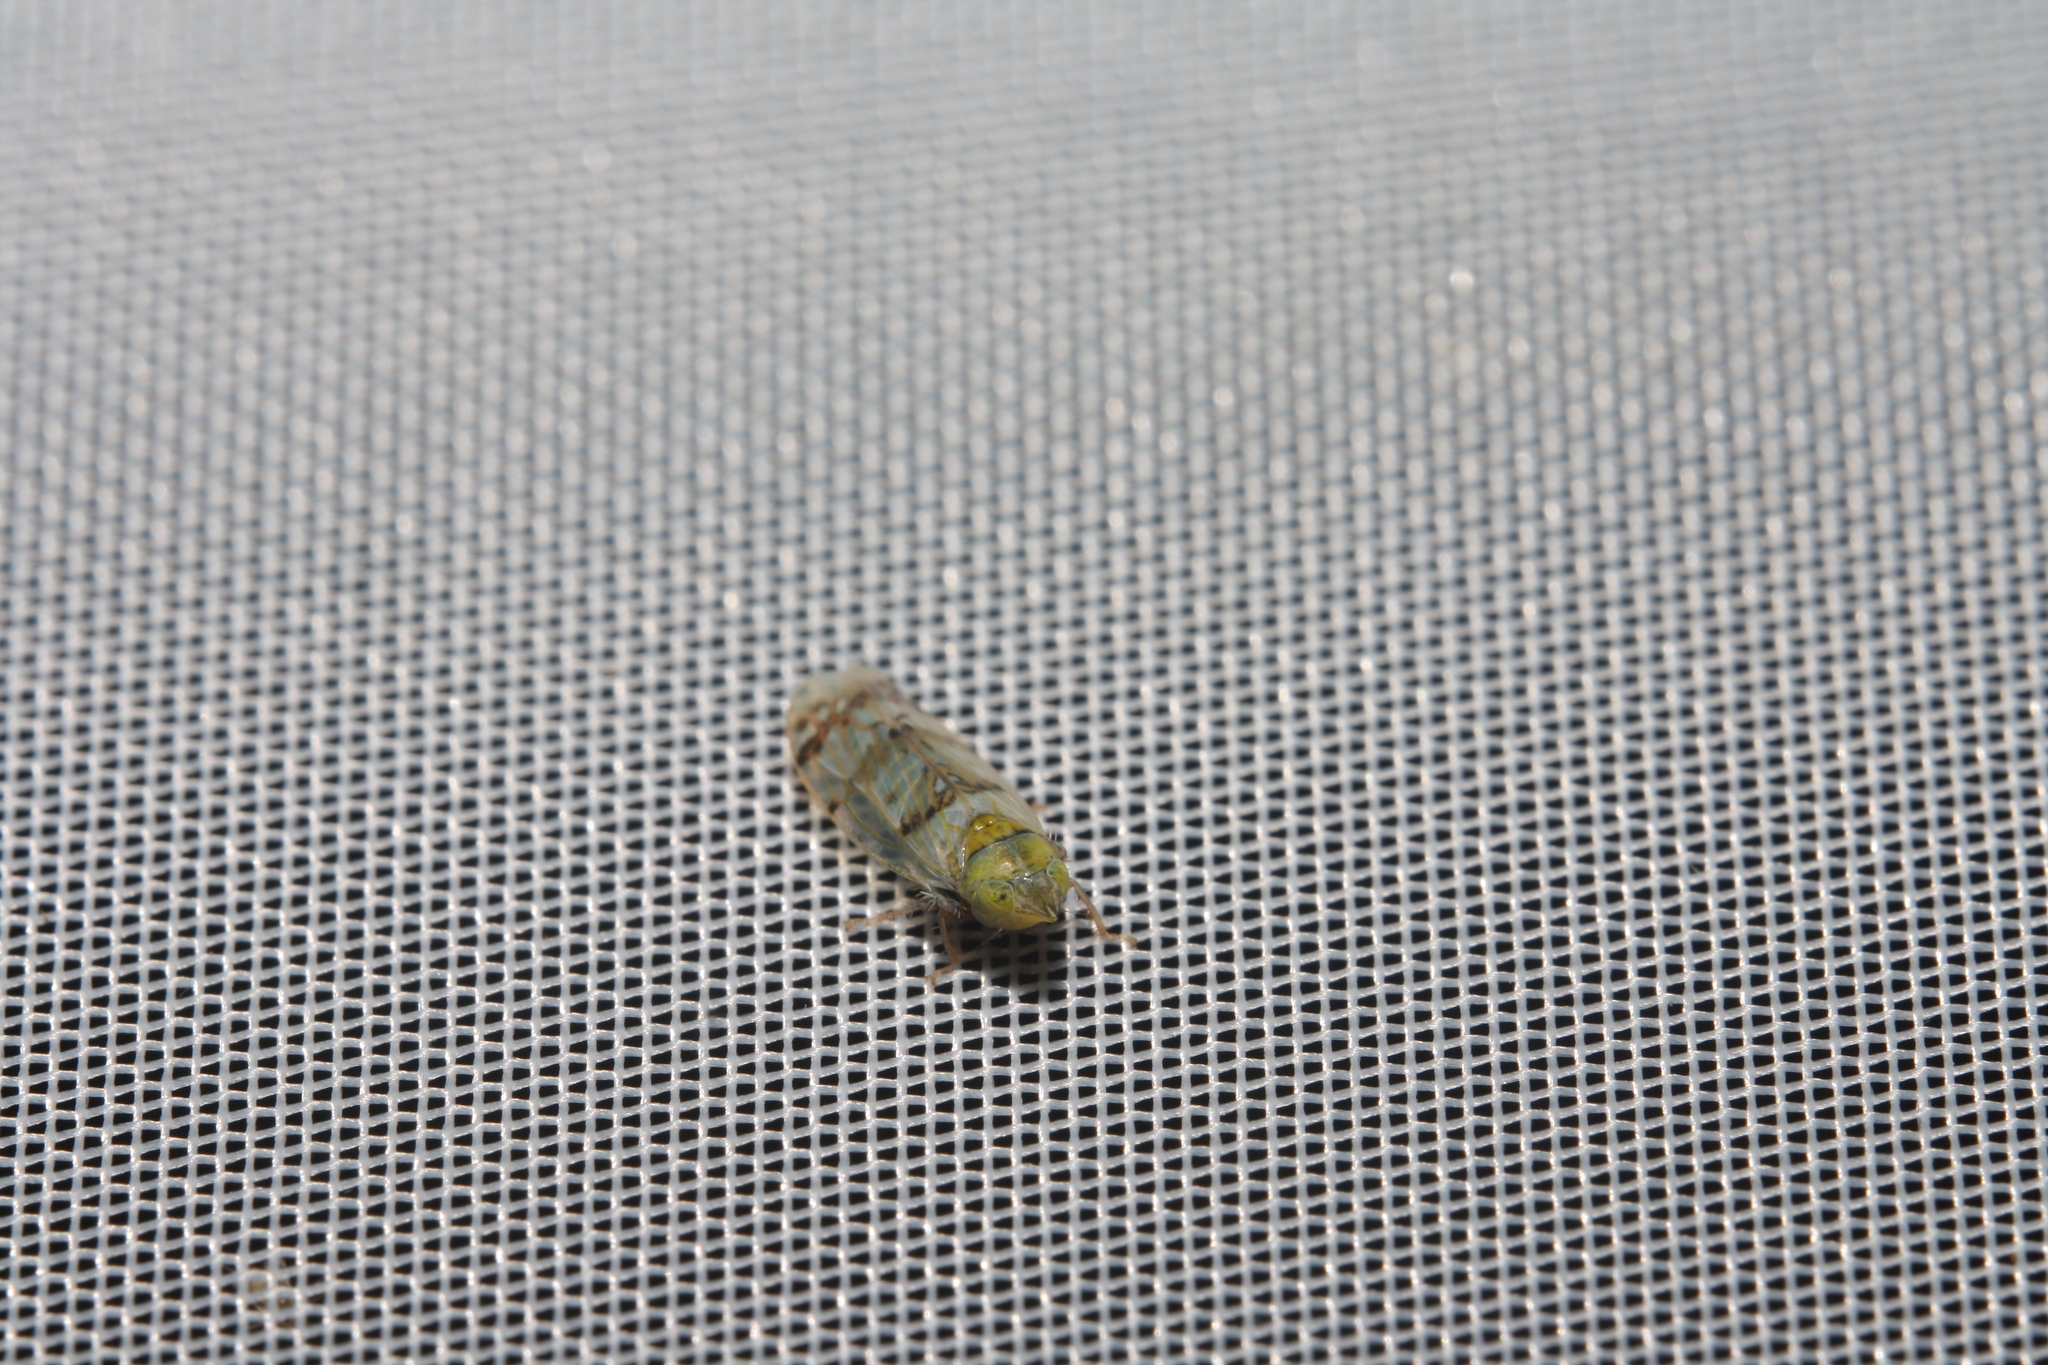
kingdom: Animalia
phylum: Arthropoda
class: Insecta
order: Hemiptera
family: Cicadellidae
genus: Japananus
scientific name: Japananus hyalinus
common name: The japanese maple leafhopper
